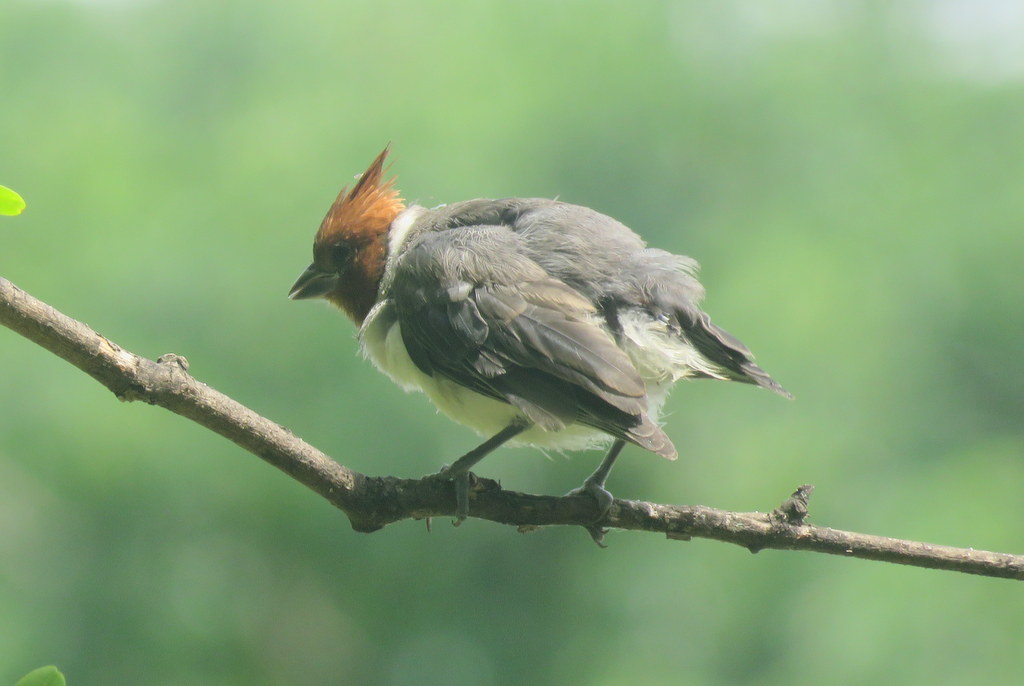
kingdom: Animalia
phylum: Chordata
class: Aves
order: Passeriformes
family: Thraupidae
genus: Paroaria
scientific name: Paroaria coronata
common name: Red-crested cardinal
